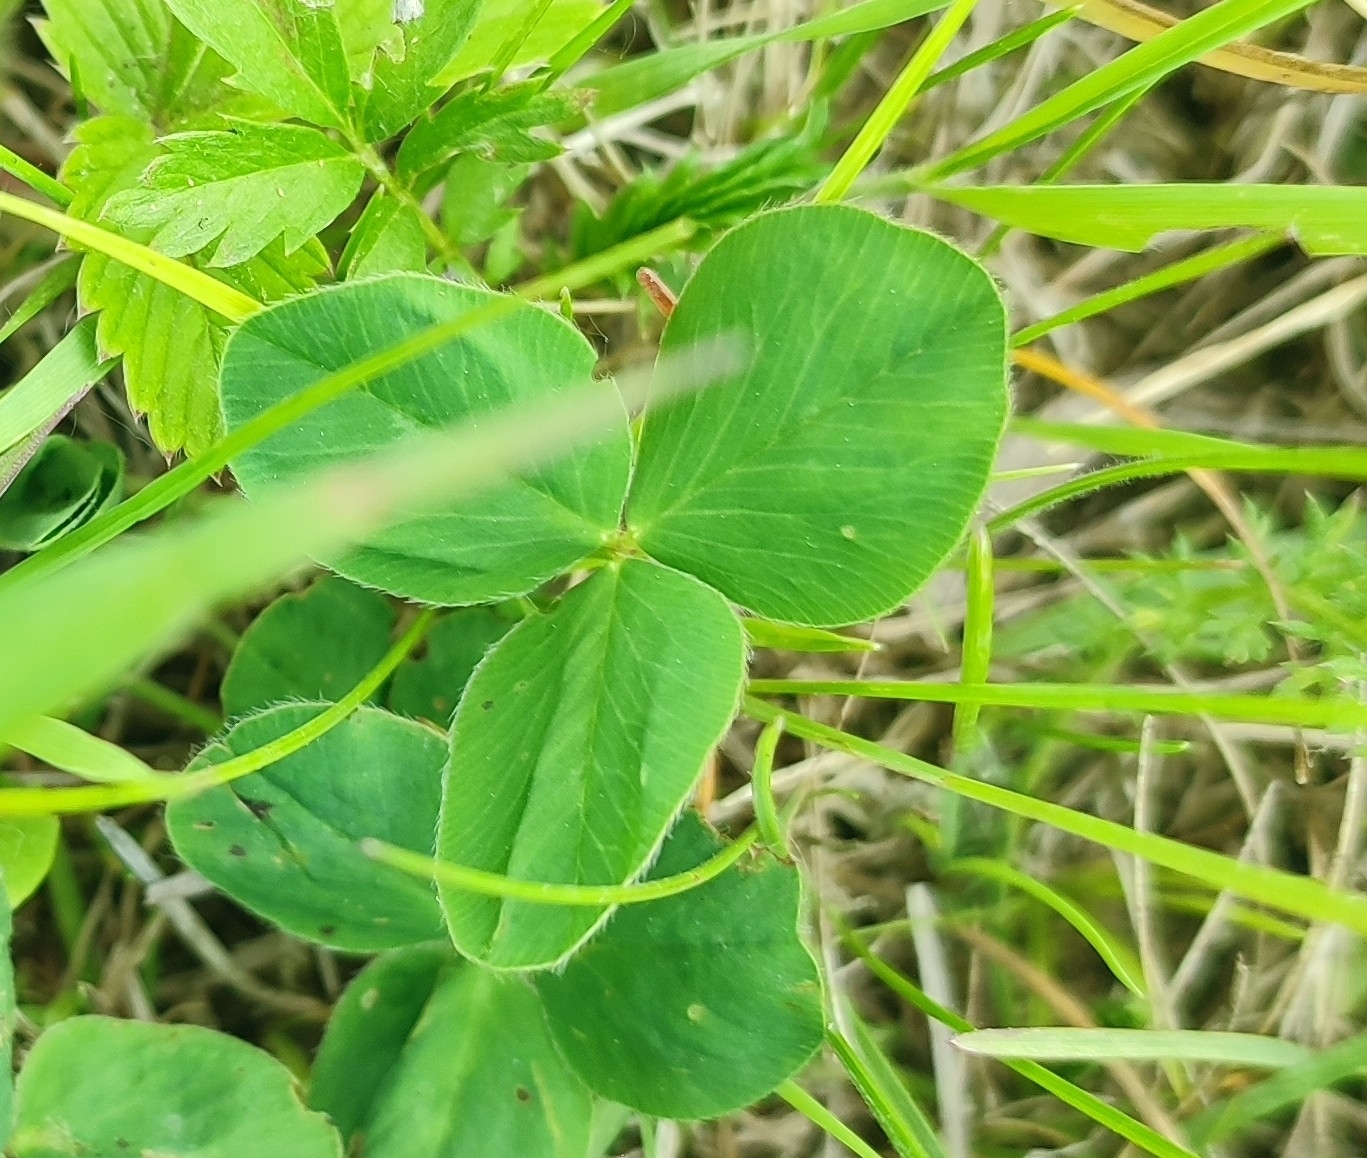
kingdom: Plantae
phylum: Tracheophyta
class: Magnoliopsida
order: Fabales
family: Fabaceae
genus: Trifolium
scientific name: Trifolium pratense
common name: Red clover
